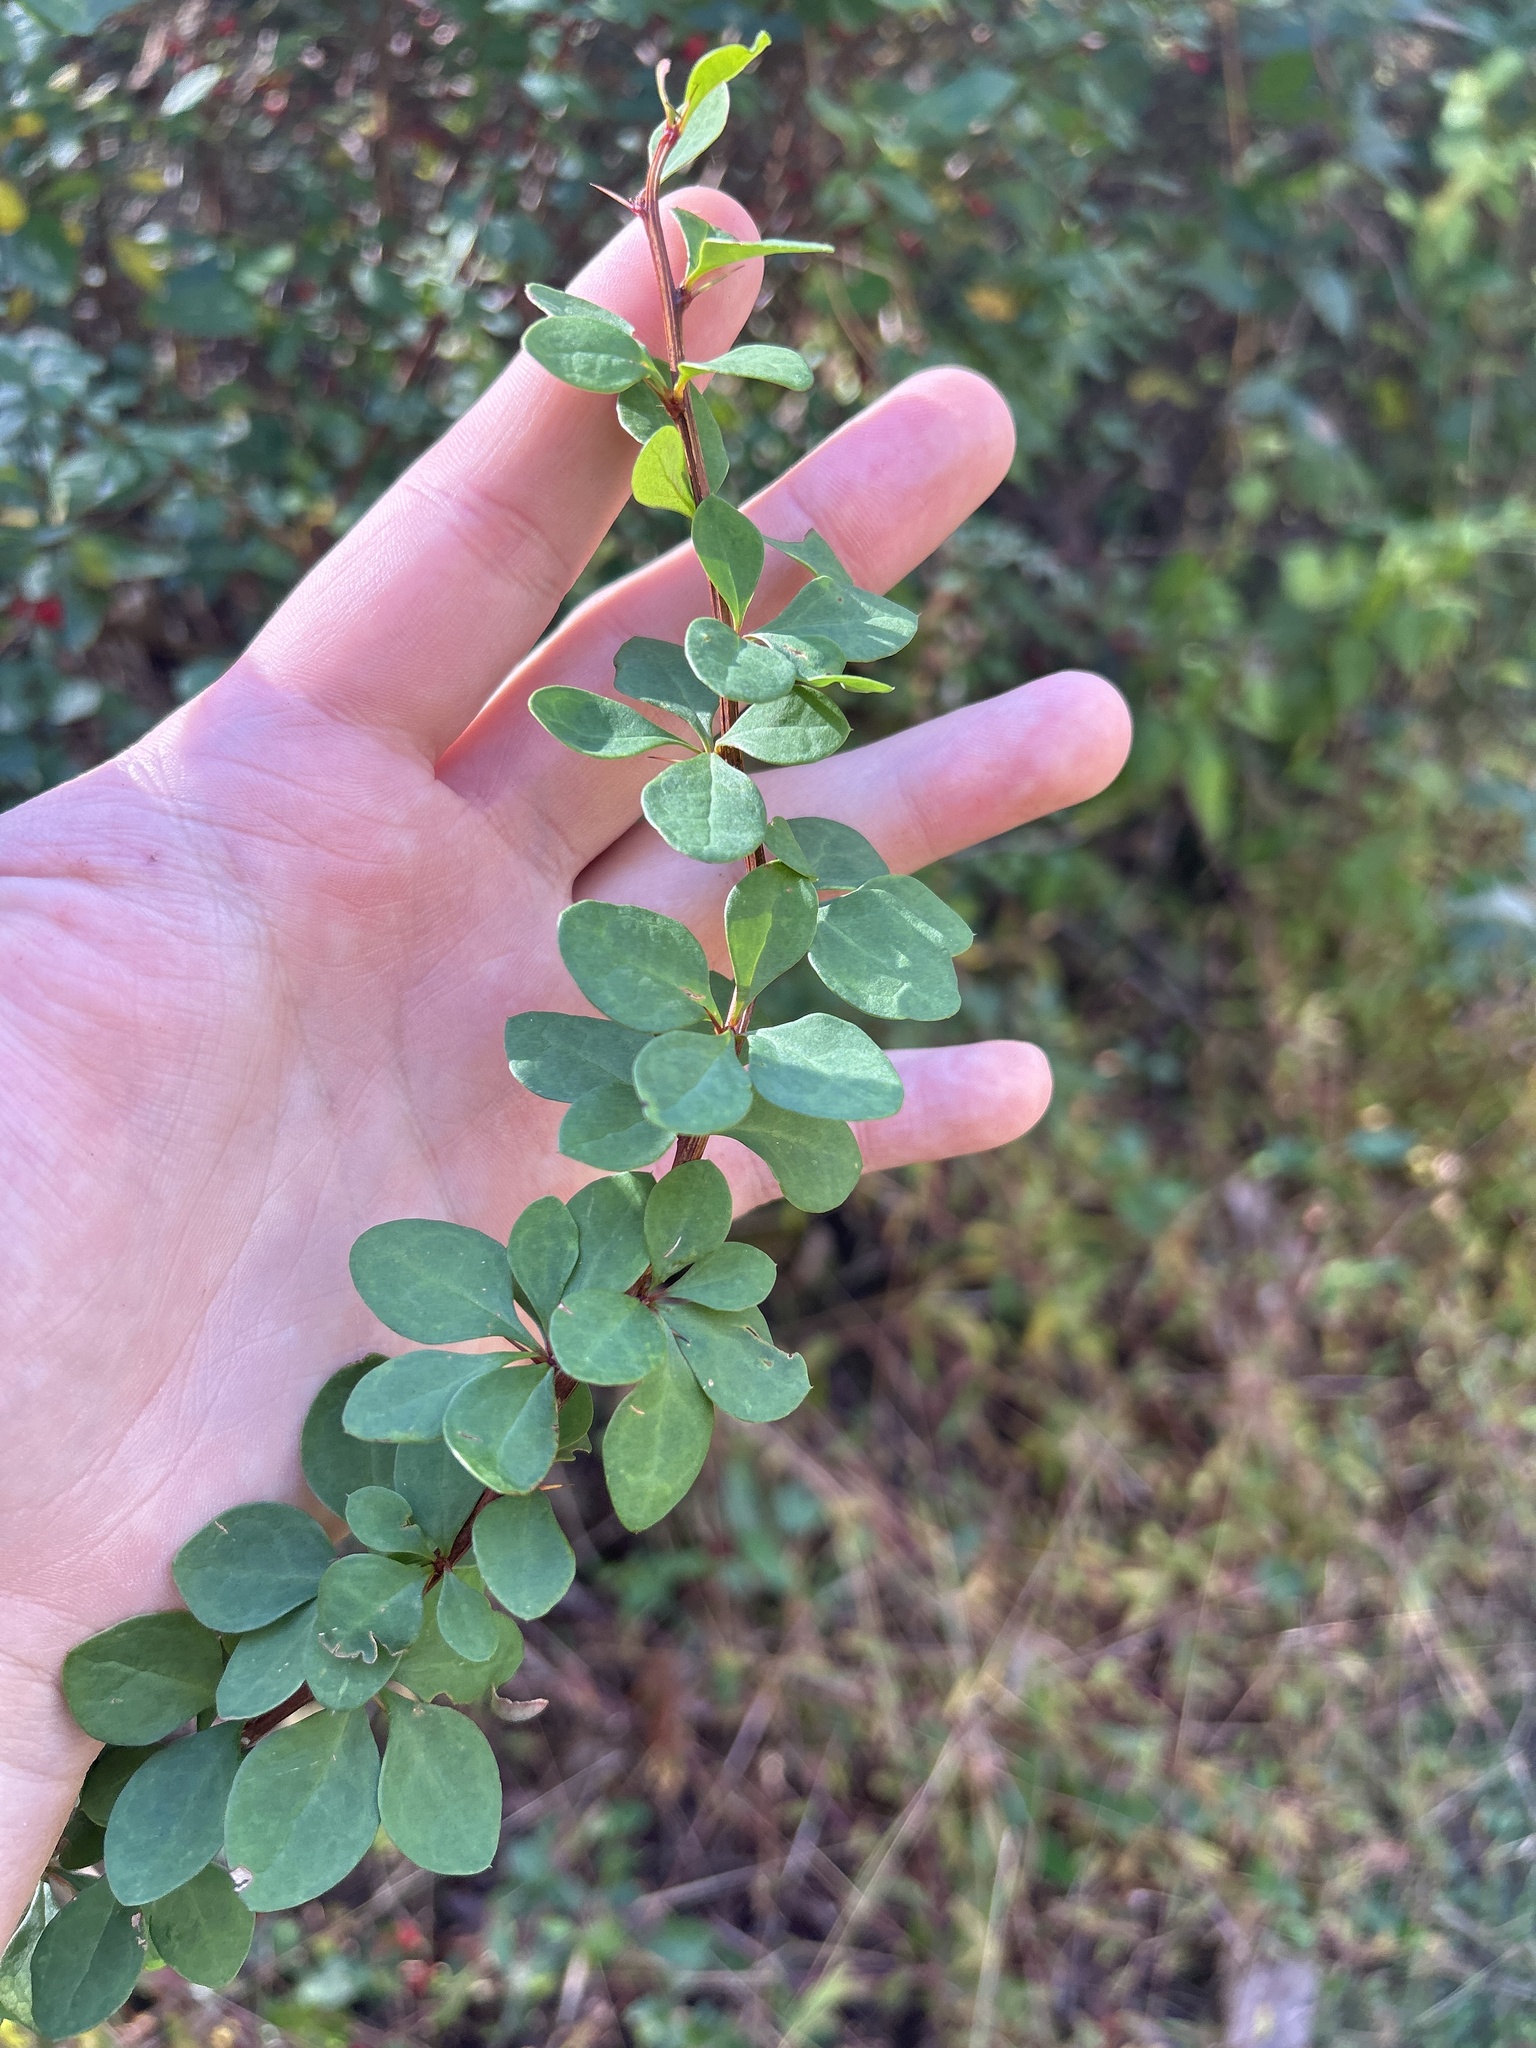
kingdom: Plantae
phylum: Tracheophyta
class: Magnoliopsida
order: Ranunculales
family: Berberidaceae
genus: Berberis
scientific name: Berberis thunbergii
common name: Japanese barberry
